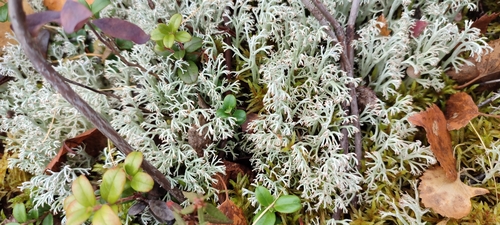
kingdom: Fungi
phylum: Ascomycota
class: Lecanoromycetes
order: Lecanorales
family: Cladoniaceae
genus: Cladonia
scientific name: Cladonia arbuscula
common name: Reindeer lichen
